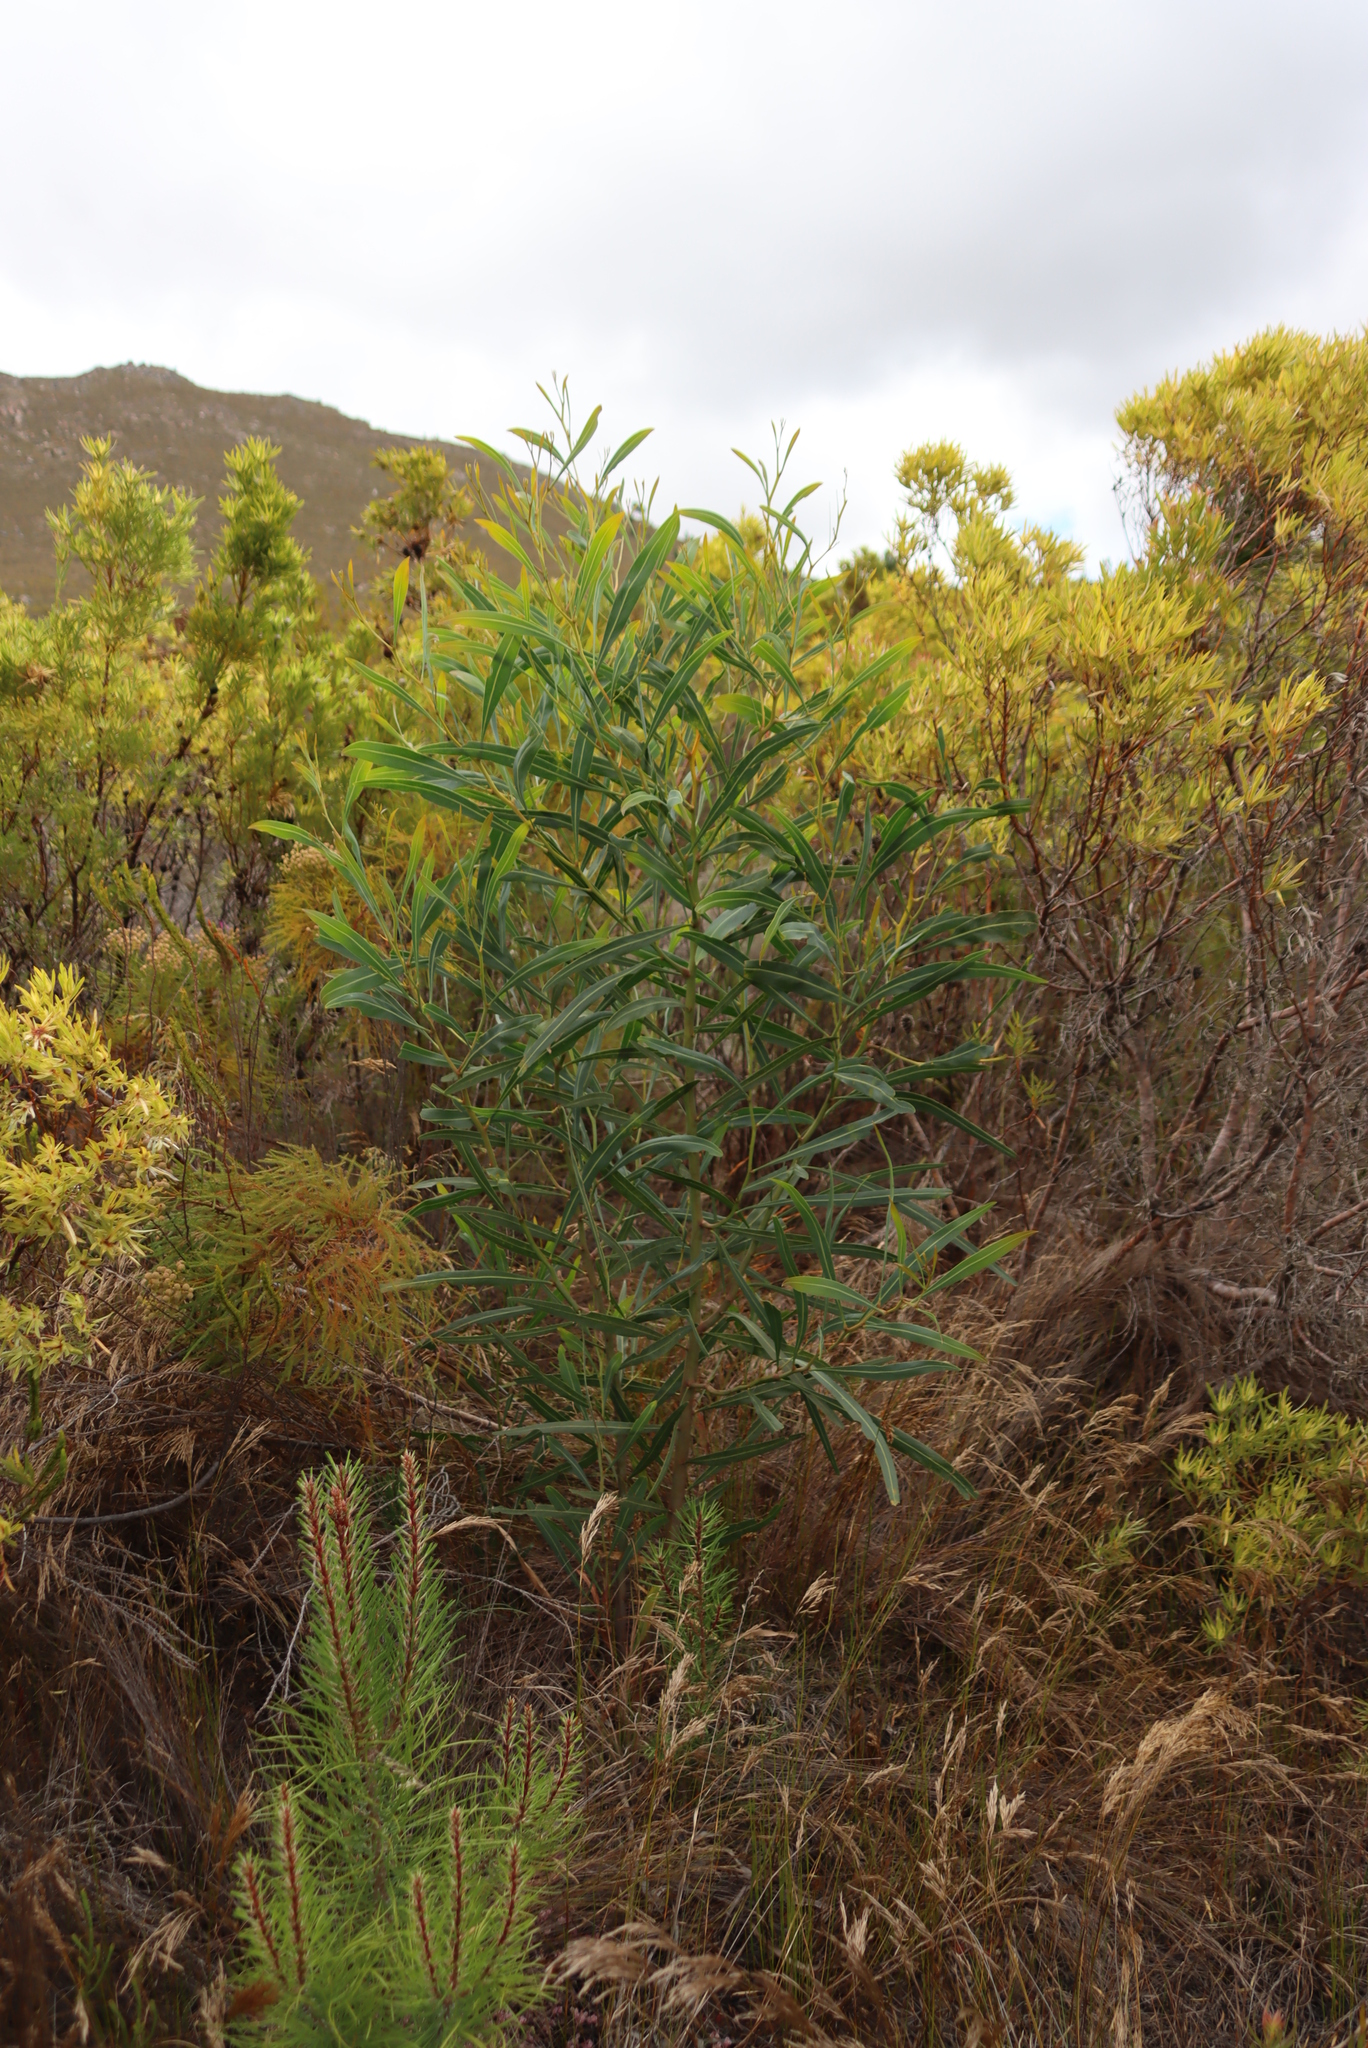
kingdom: Plantae
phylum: Tracheophyta
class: Magnoliopsida
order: Fabales
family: Fabaceae
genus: Acacia
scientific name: Acacia saligna
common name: Orange wattle
